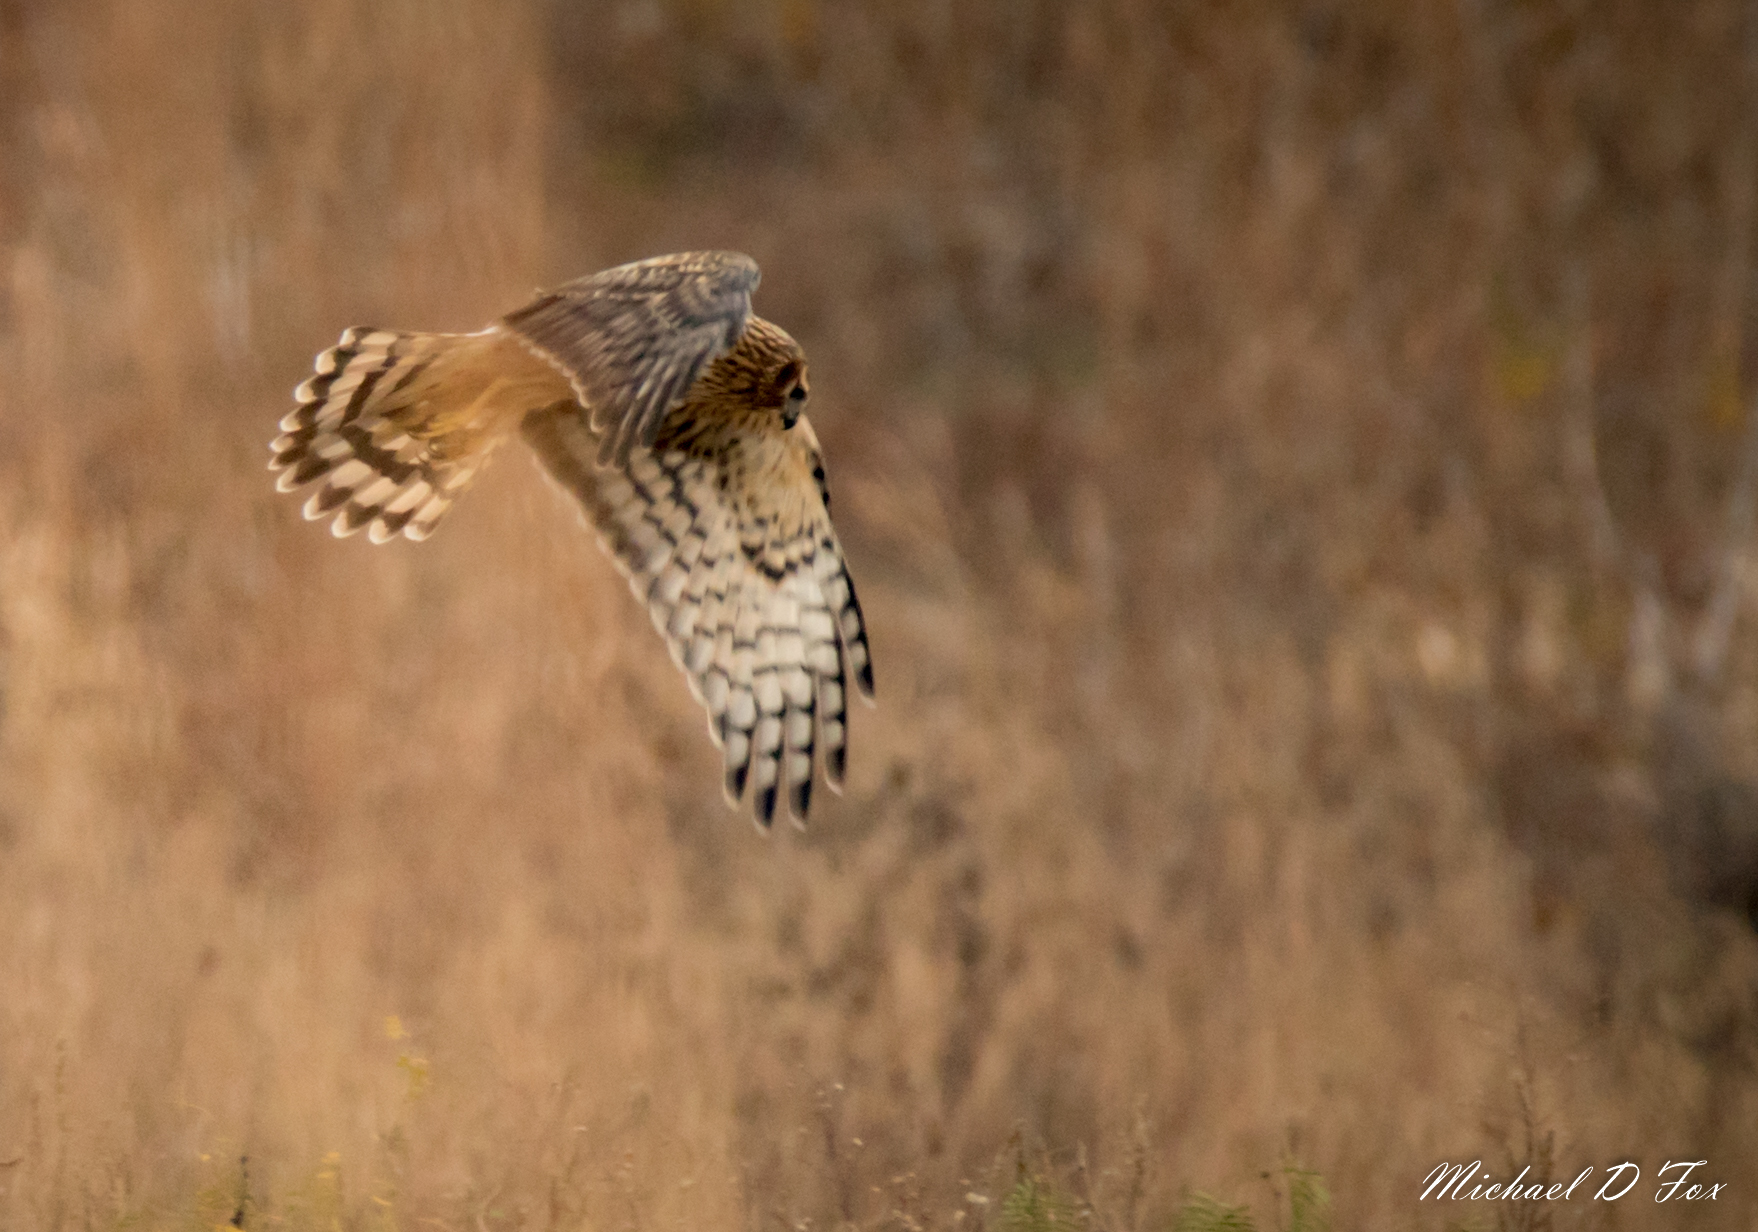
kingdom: Animalia
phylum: Chordata
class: Aves
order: Accipitriformes
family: Accipitridae
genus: Circus
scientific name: Circus cyaneus
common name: Hen harrier
